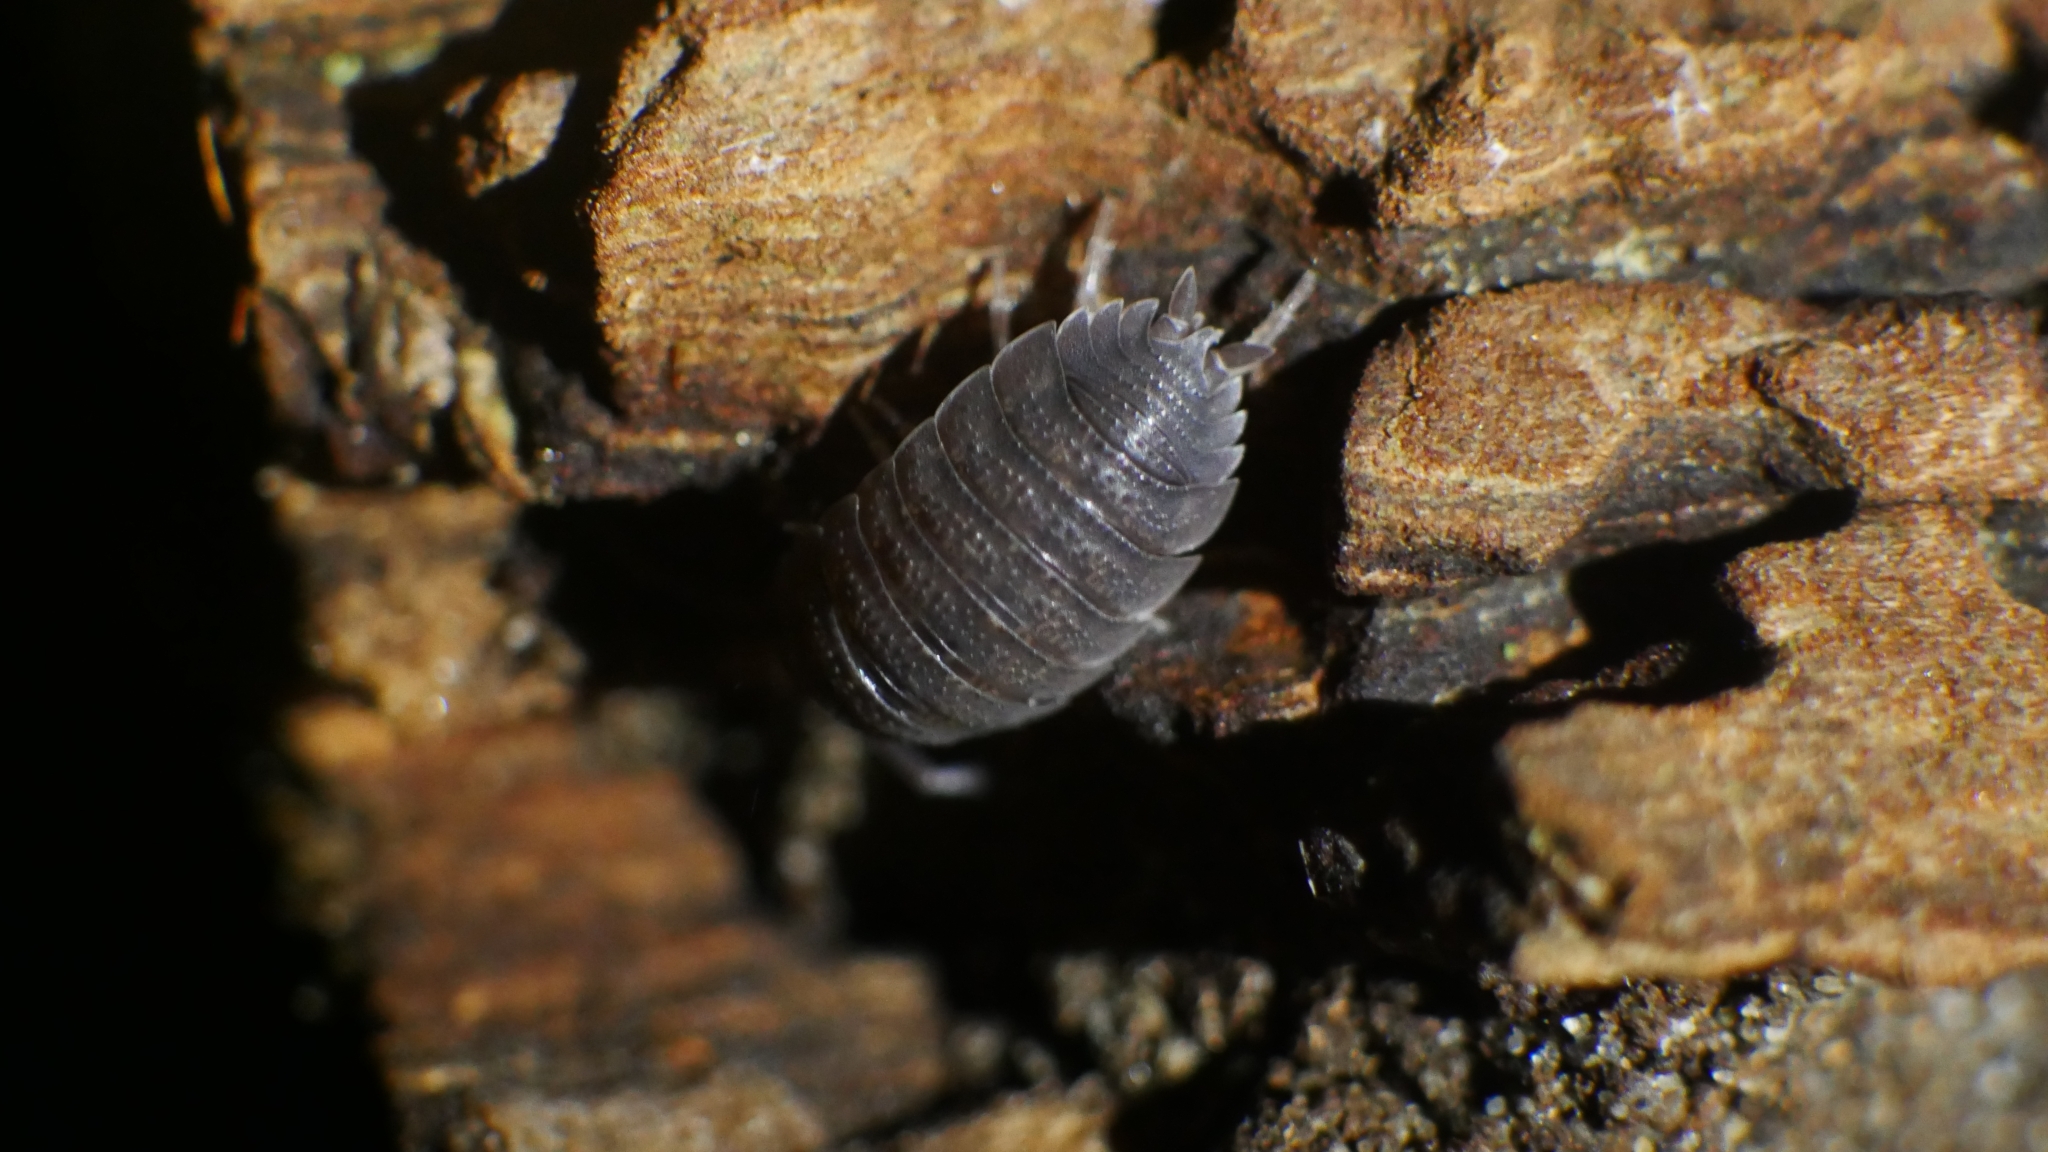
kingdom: Animalia
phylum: Arthropoda
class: Malacostraca
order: Isopoda
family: Porcellionidae
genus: Porcellio
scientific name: Porcellio scaber
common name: Common rough woodlouse
